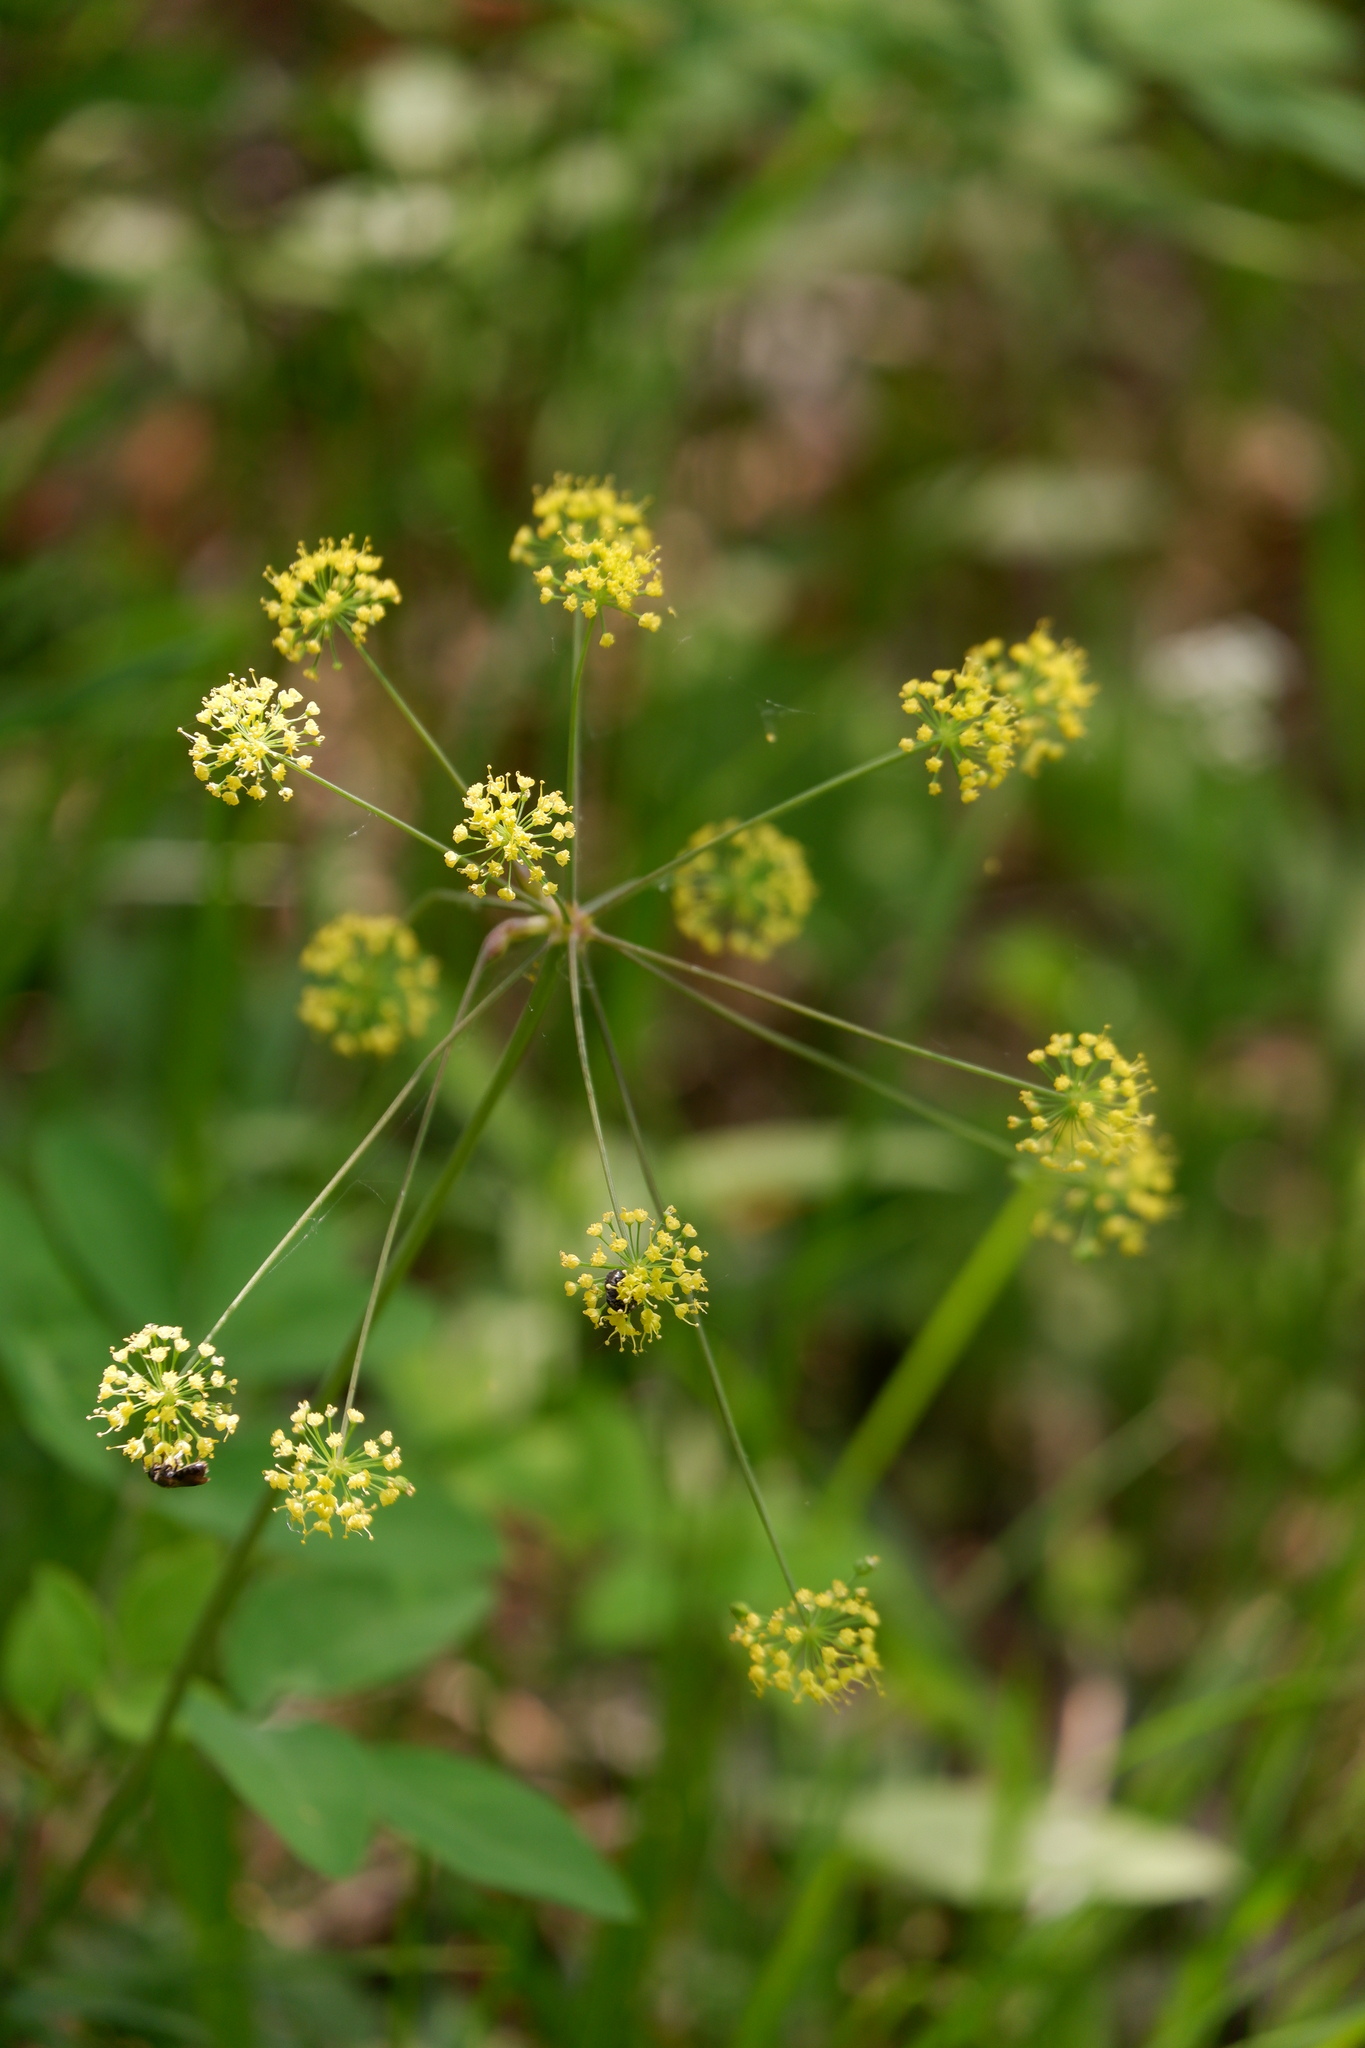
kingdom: Plantae
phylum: Tracheophyta
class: Magnoliopsida
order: Apiales
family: Apiaceae
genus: Taenidia
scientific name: Taenidia integerrima
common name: Golden alexander
